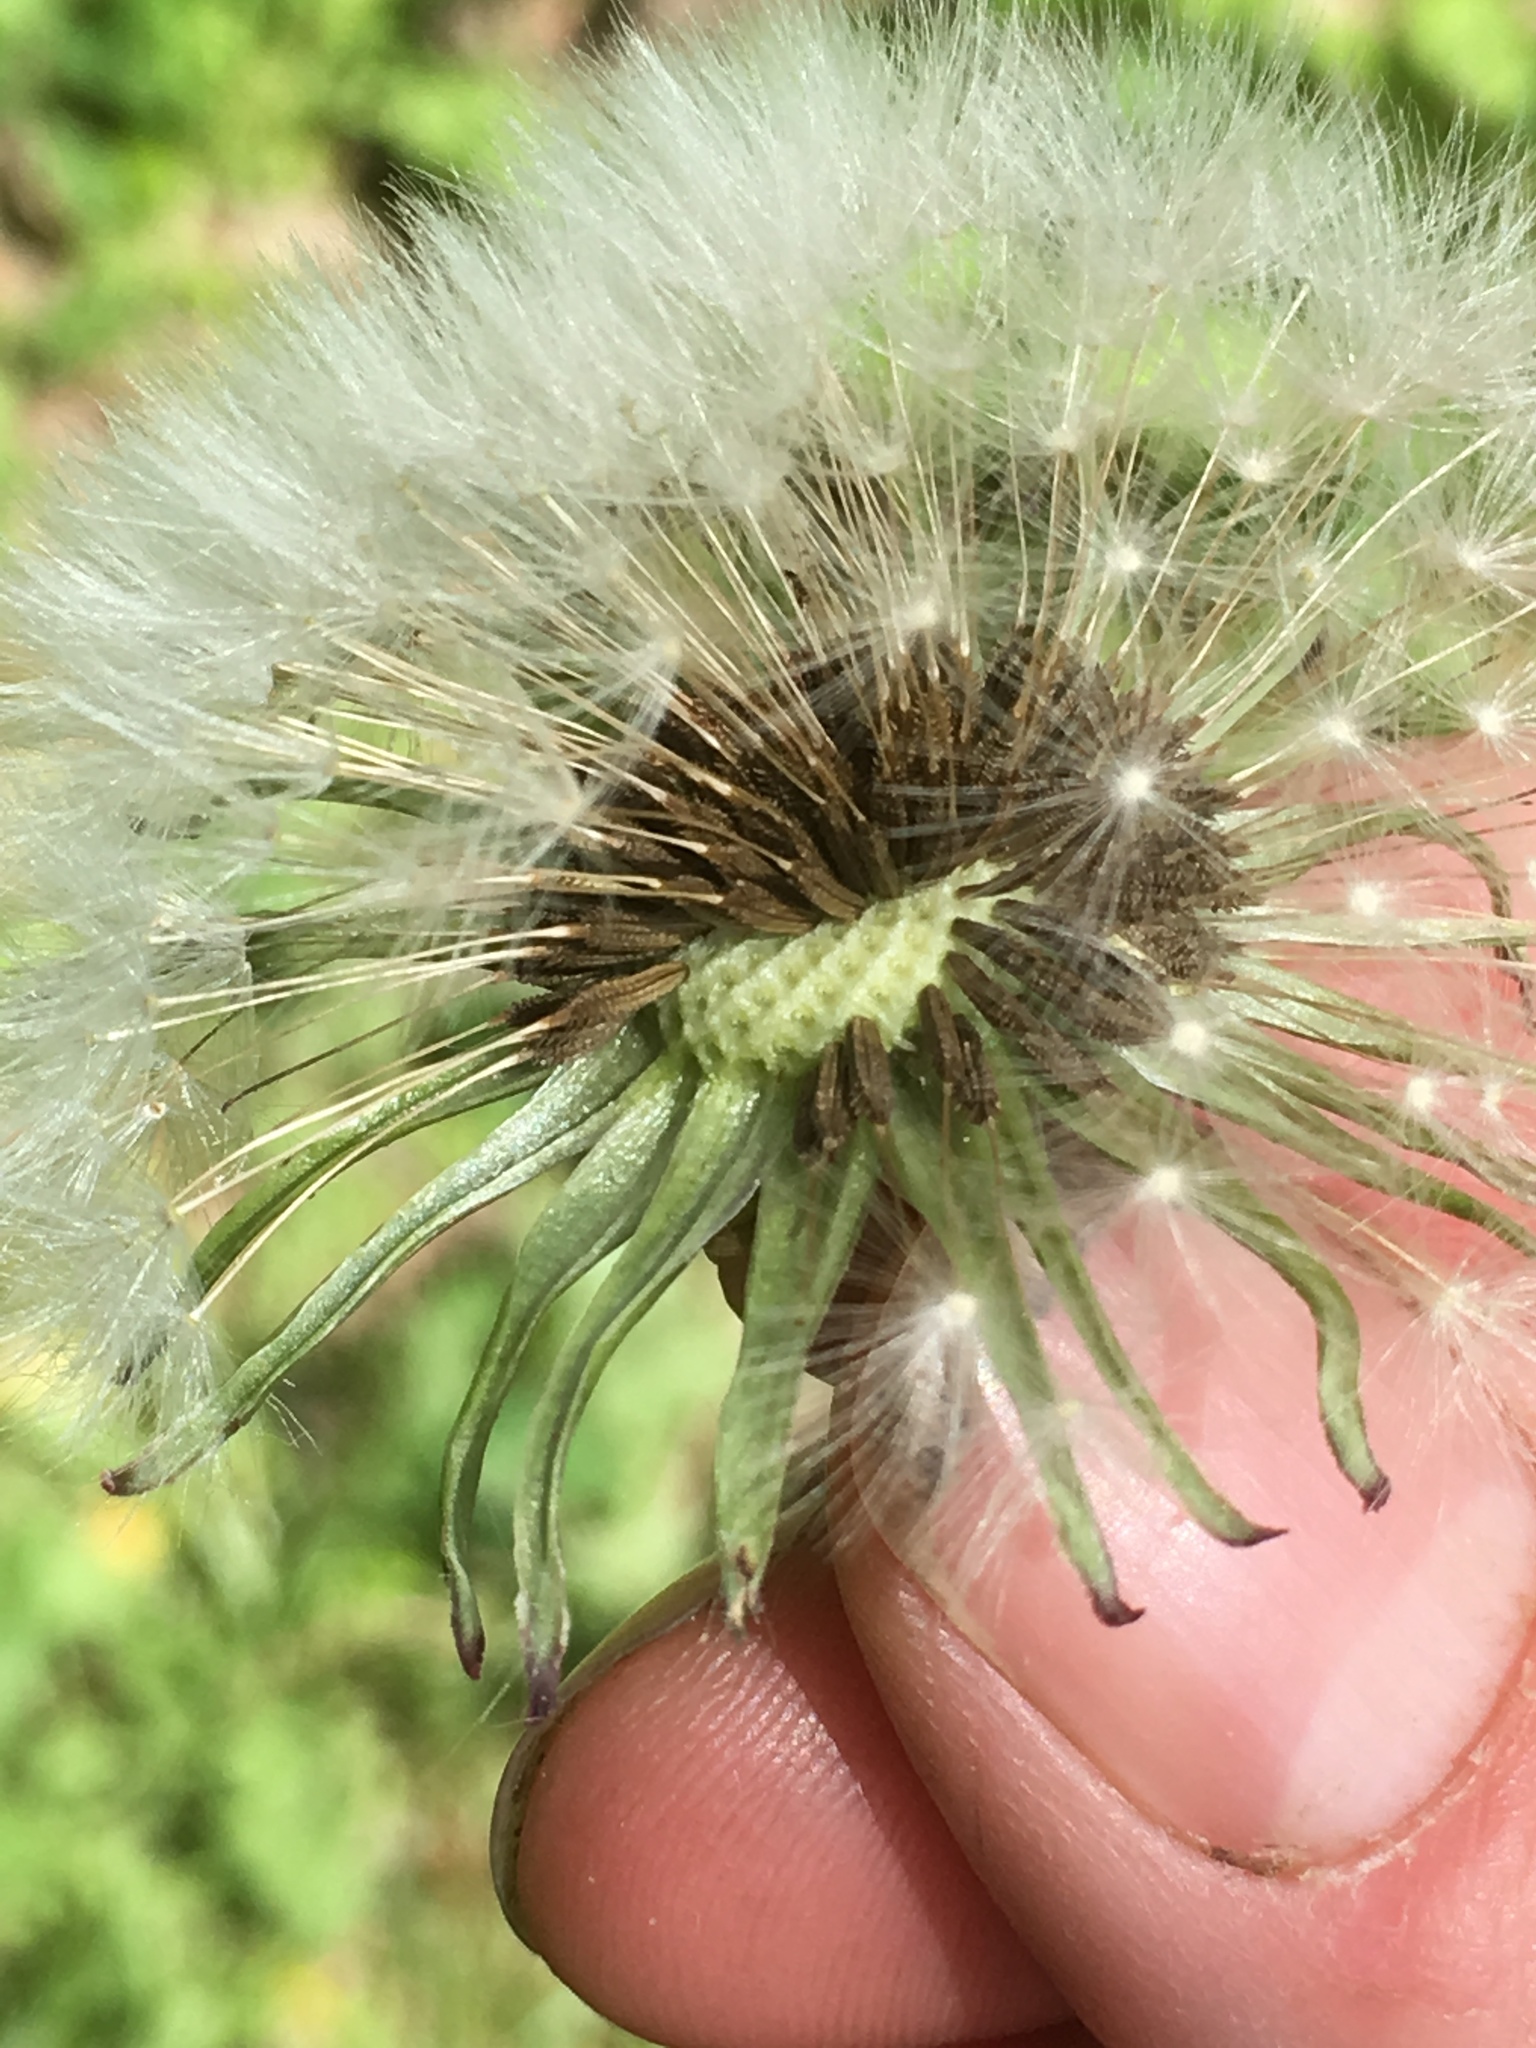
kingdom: Plantae
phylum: Tracheophyta
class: Magnoliopsida
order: Asterales
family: Asteraceae
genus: Taraxacum
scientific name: Taraxacum officinale
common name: Common dandelion
